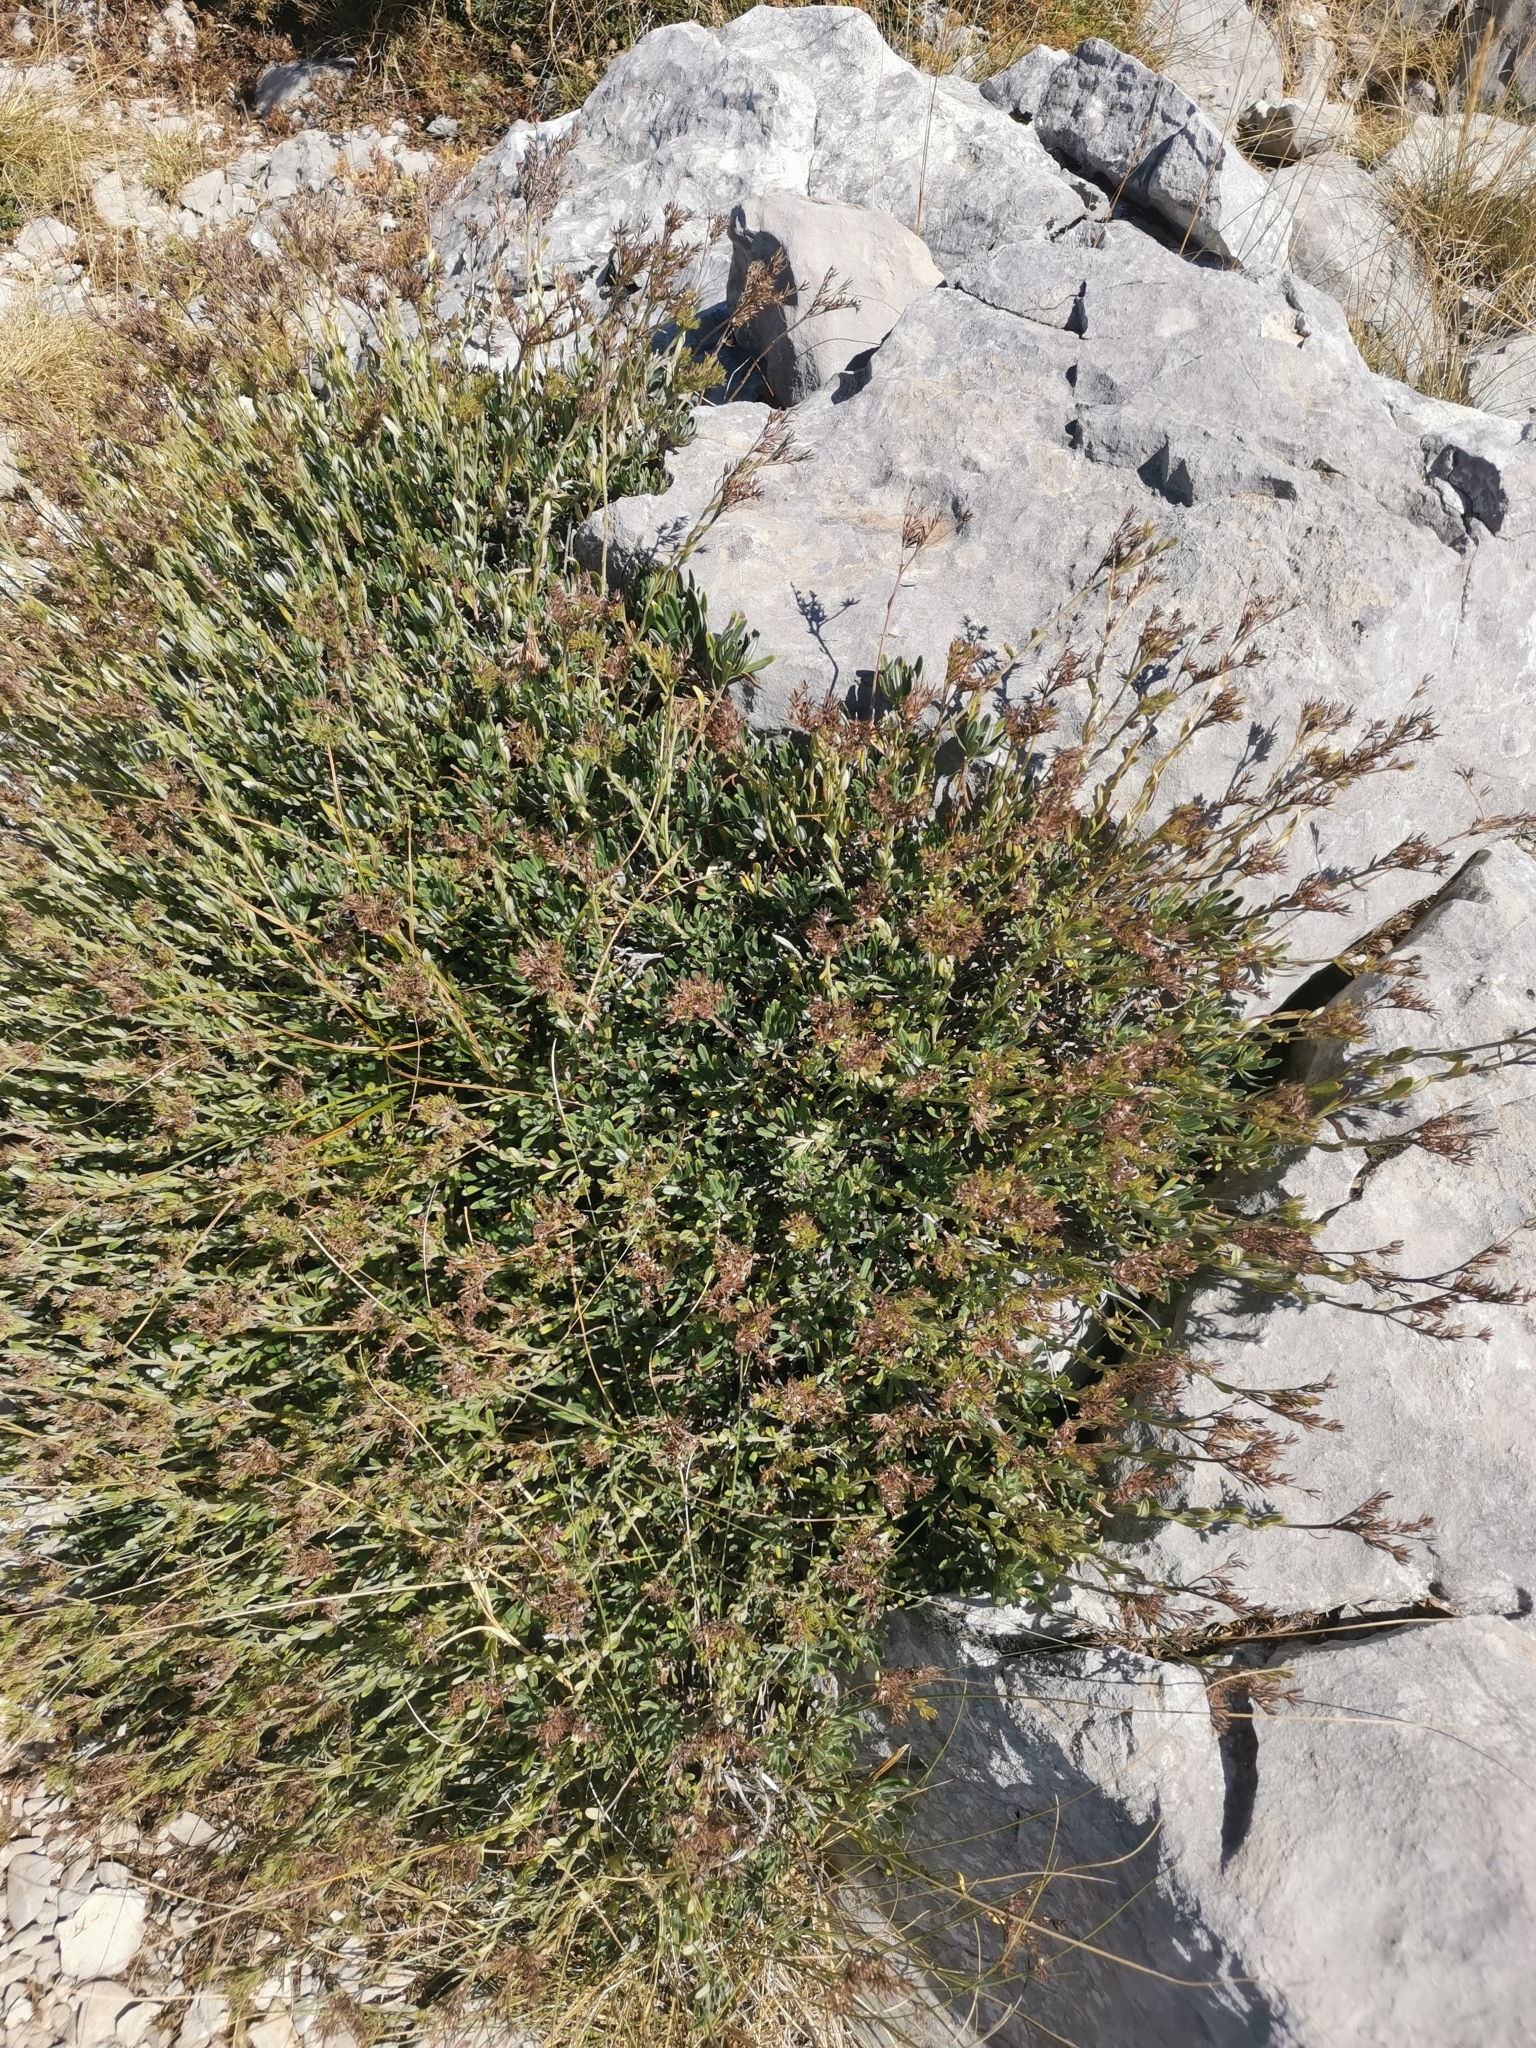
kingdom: Plantae
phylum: Tracheophyta
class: Magnoliopsida
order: Boraginales
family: Boraginaceae
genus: Moltkia
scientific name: Moltkia petraea
